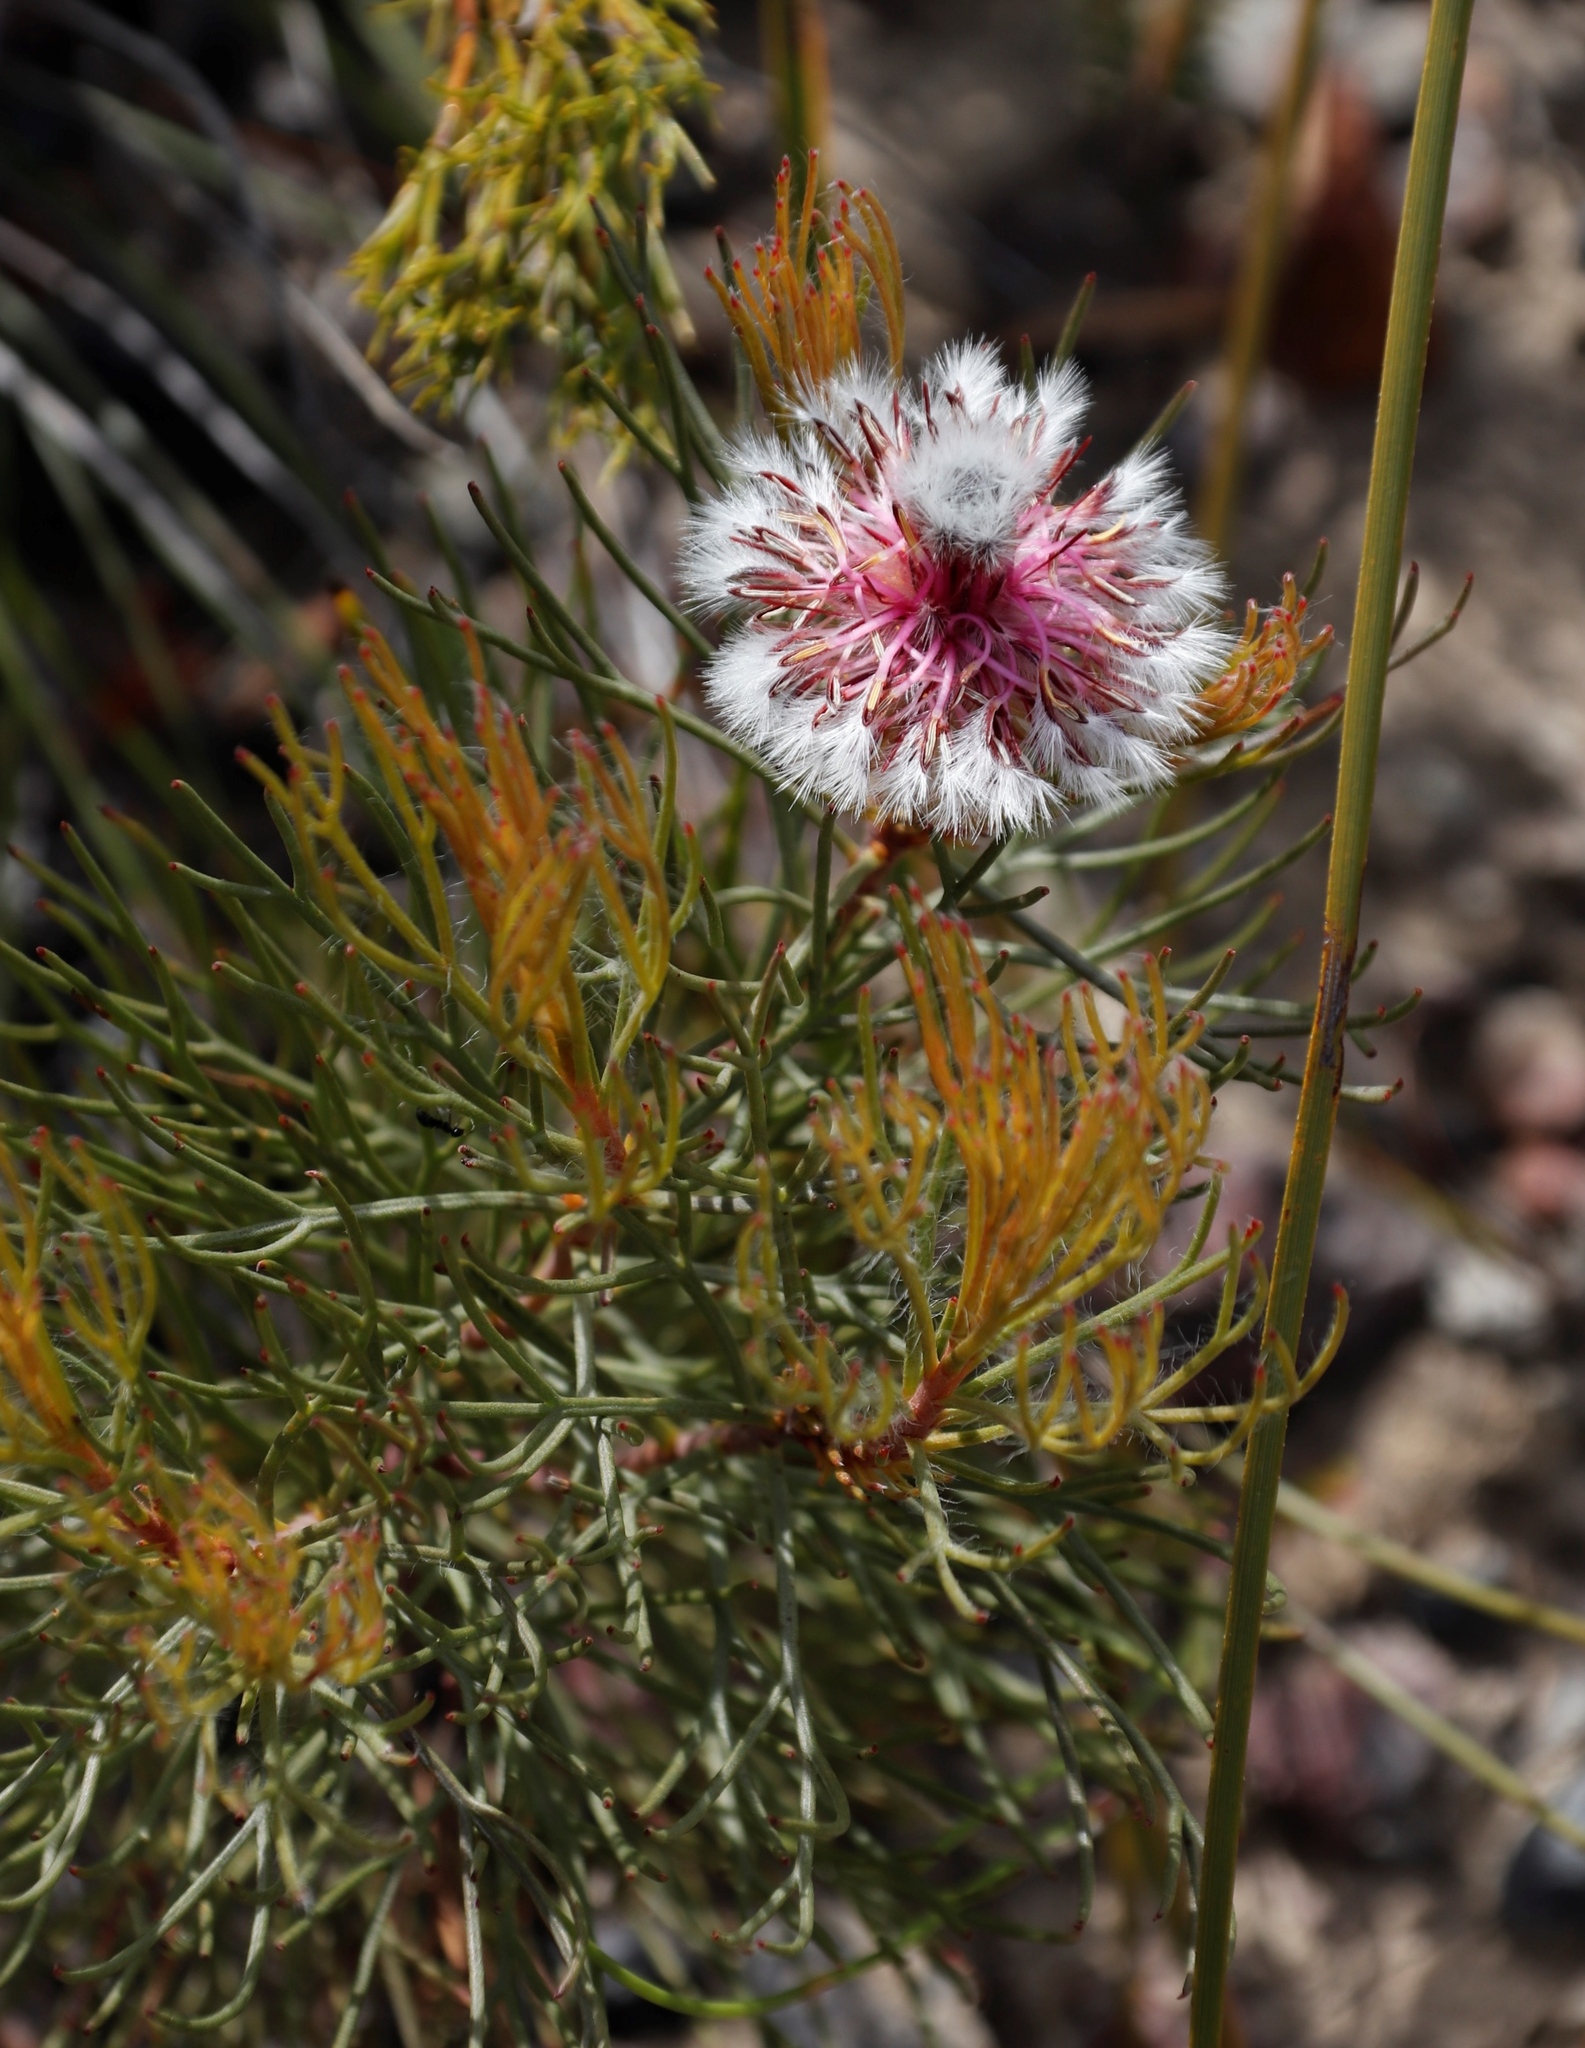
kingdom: Plantae
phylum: Tracheophyta
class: Magnoliopsida
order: Proteales
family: Proteaceae
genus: Serruria
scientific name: Serruria phylicoides
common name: Bearded spiderhead
